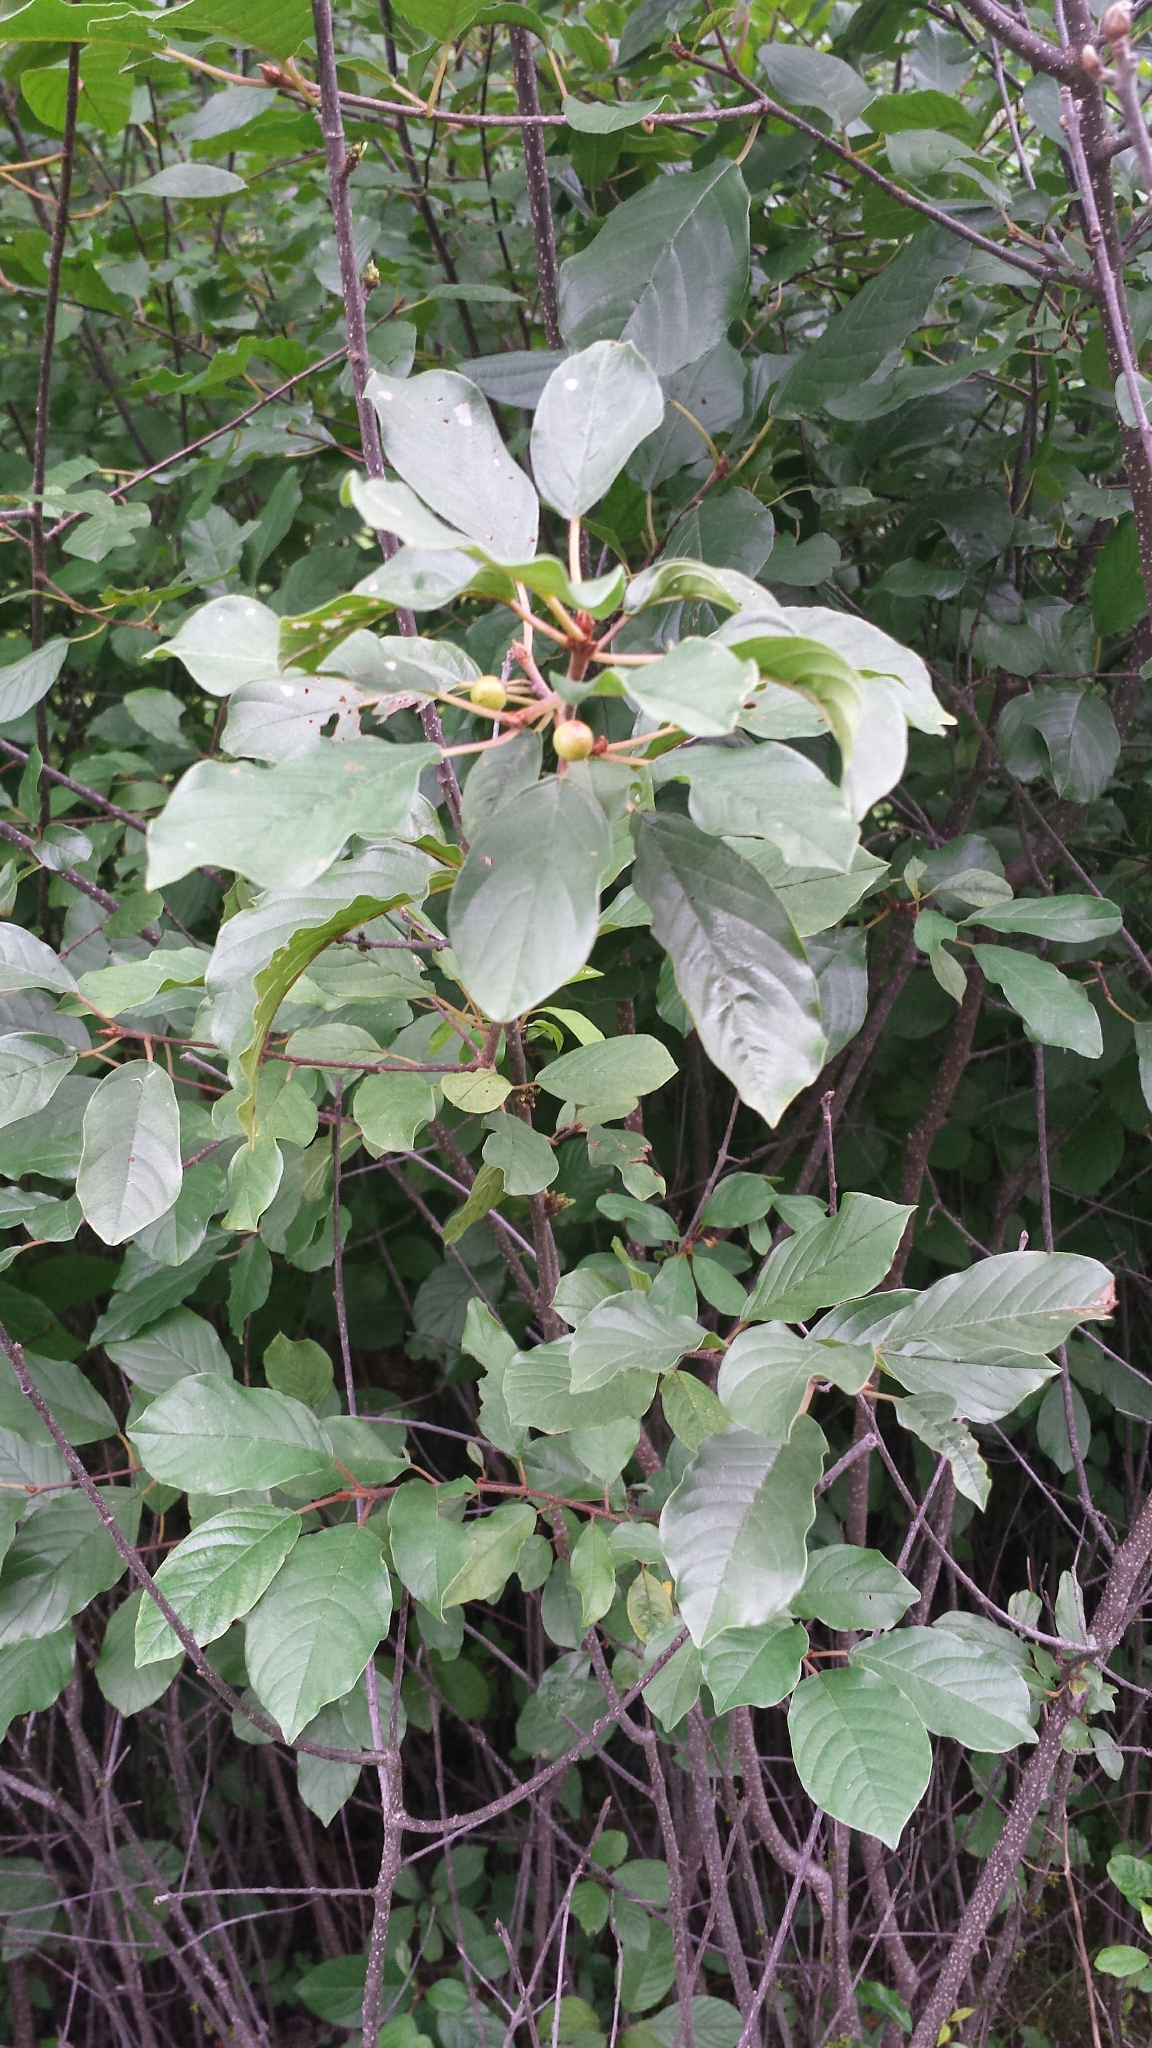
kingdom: Plantae
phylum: Tracheophyta
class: Magnoliopsida
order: Rosales
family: Rhamnaceae
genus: Frangula
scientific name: Frangula alnus
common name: Alder buckthorn
